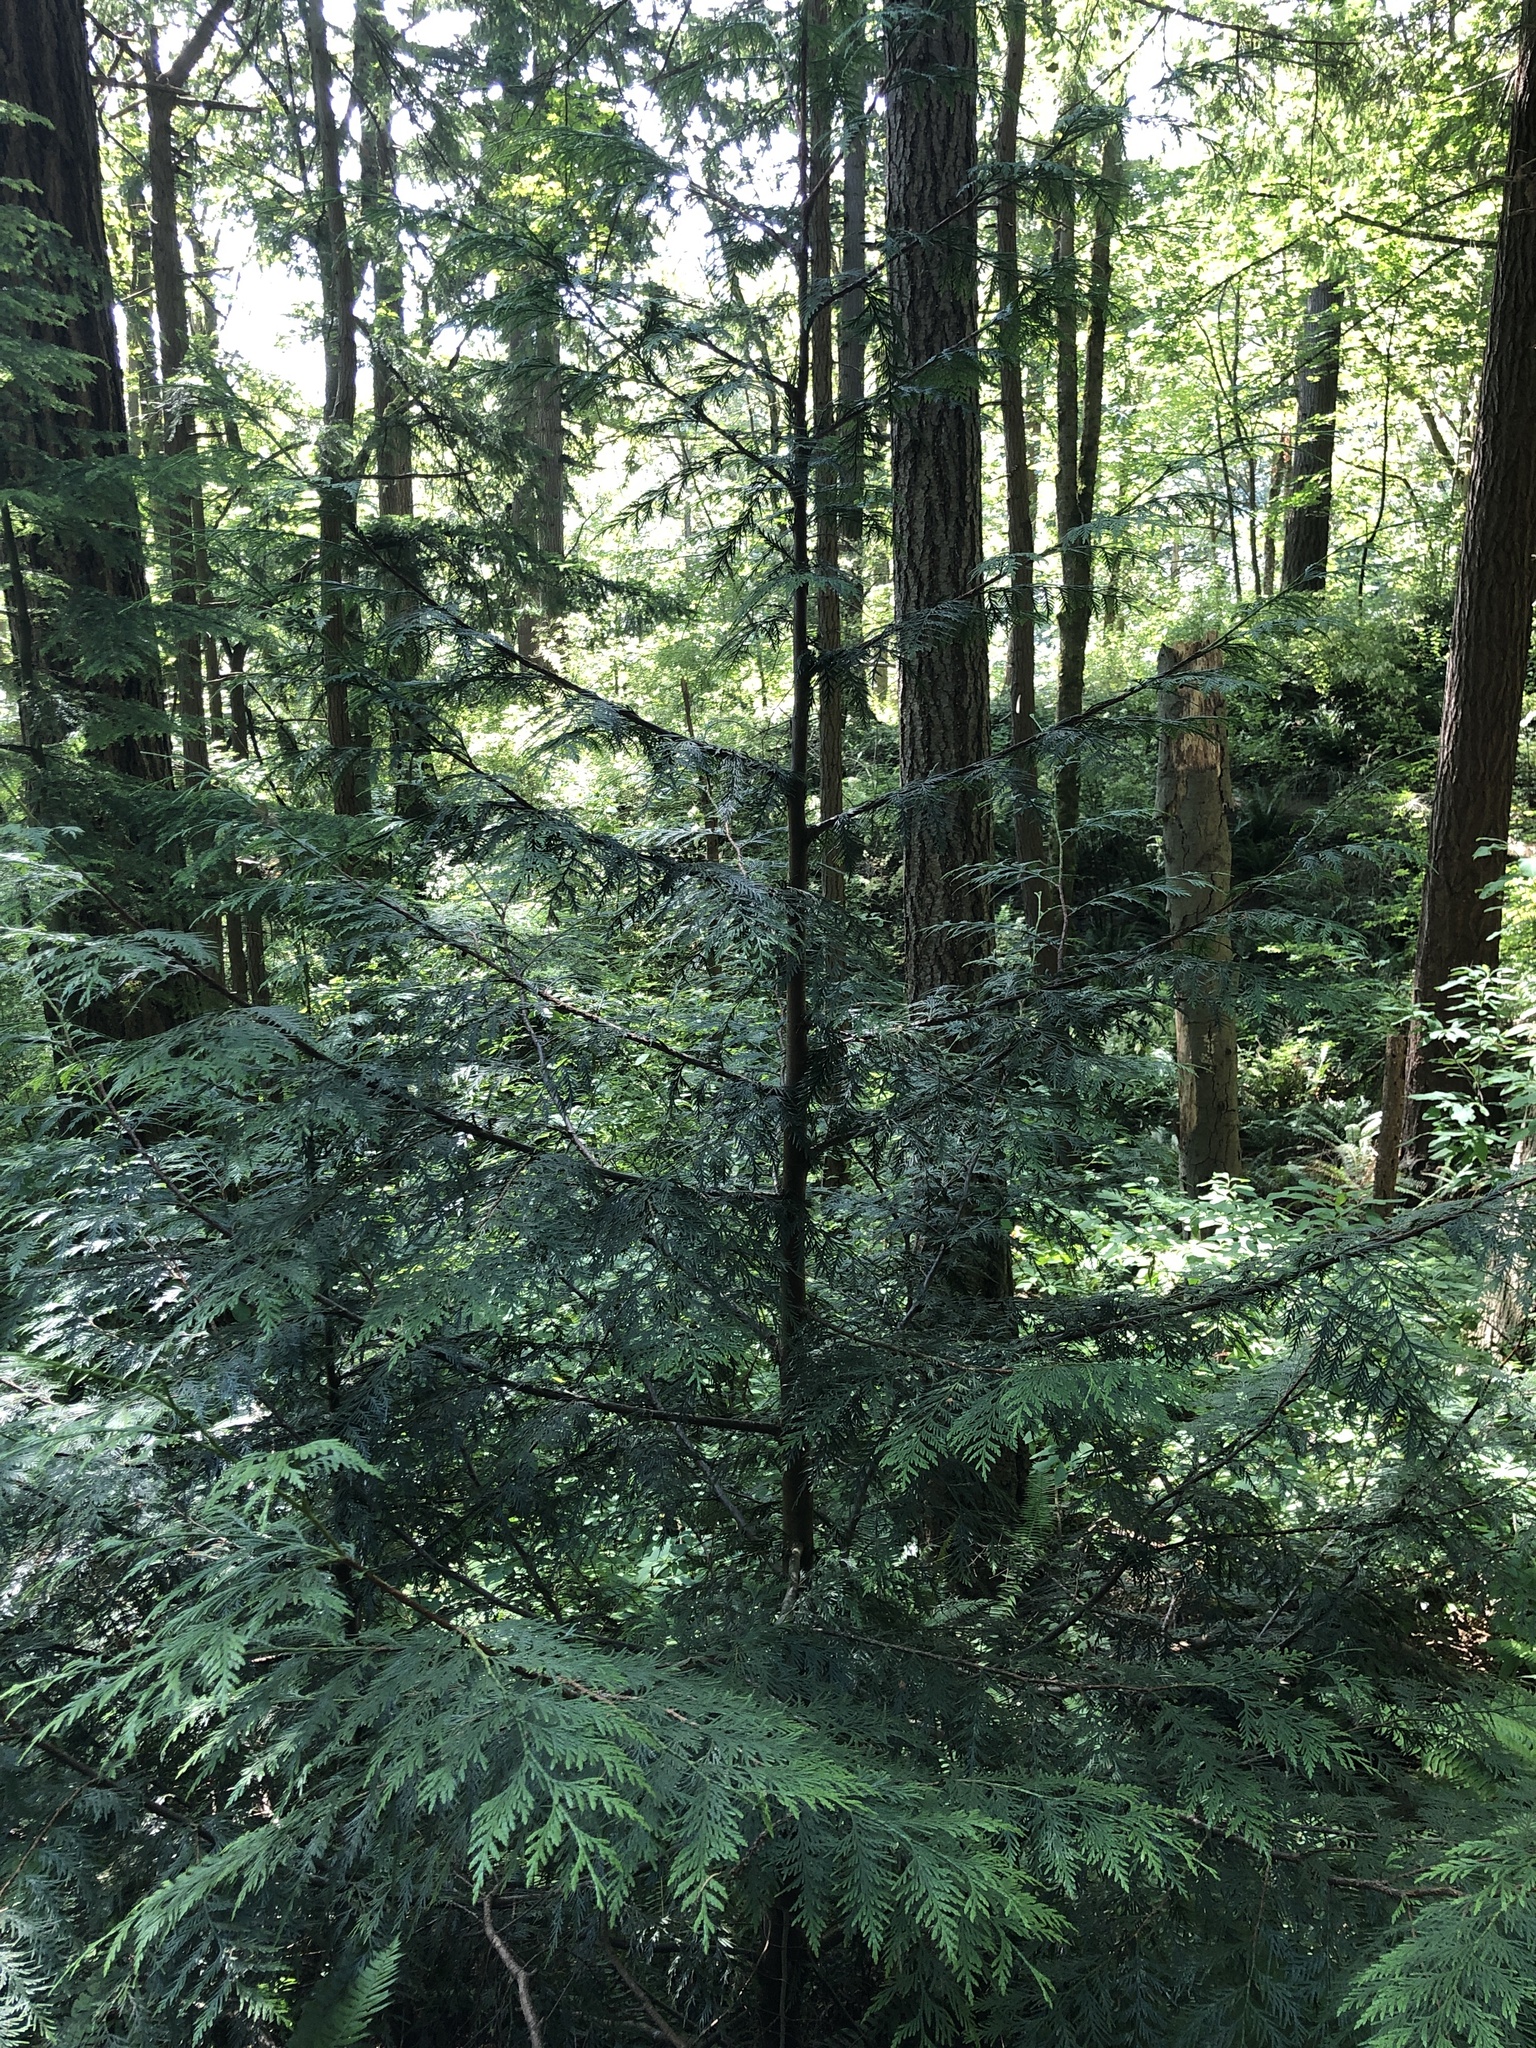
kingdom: Plantae
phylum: Tracheophyta
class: Pinopsida
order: Pinales
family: Cupressaceae
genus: Thuja
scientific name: Thuja plicata
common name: Western red-cedar
